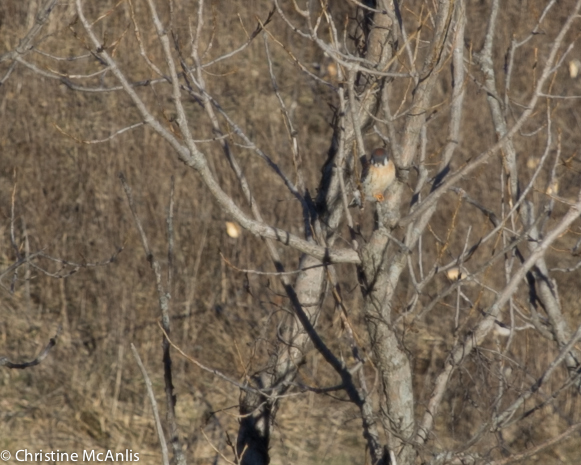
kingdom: Animalia
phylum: Chordata
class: Aves
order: Falconiformes
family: Falconidae
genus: Falco
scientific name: Falco sparverius
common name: American kestrel
